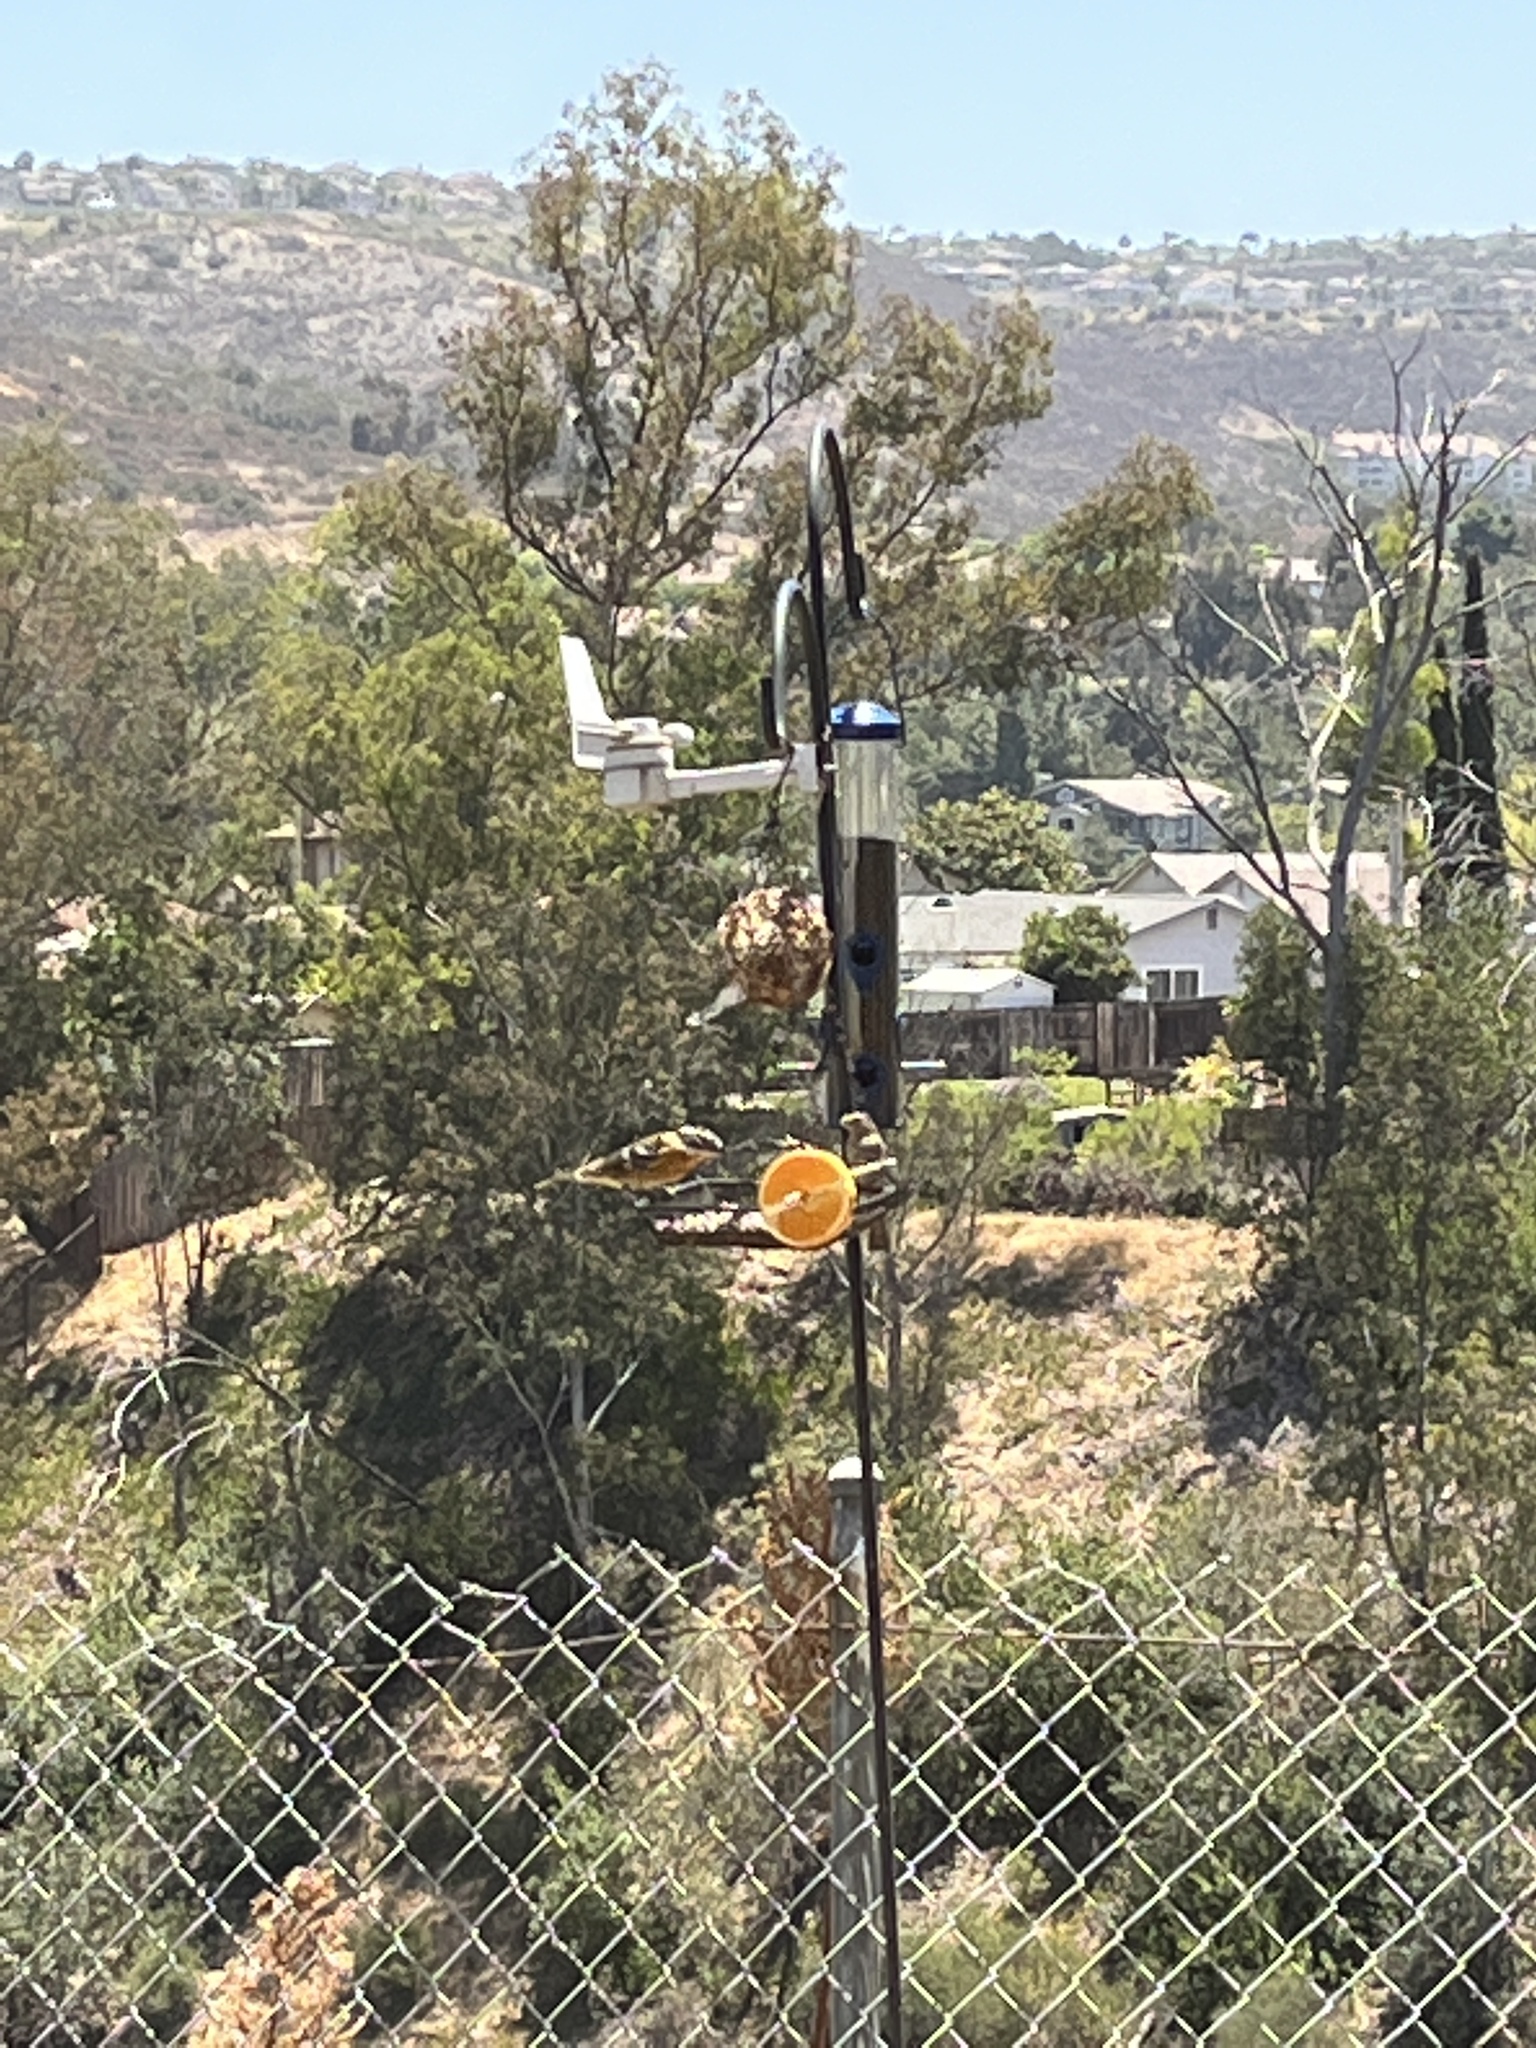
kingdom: Animalia
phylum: Chordata
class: Aves
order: Passeriformes
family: Cardinalidae
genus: Pheucticus
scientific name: Pheucticus melanocephalus
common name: Black-headed grosbeak
